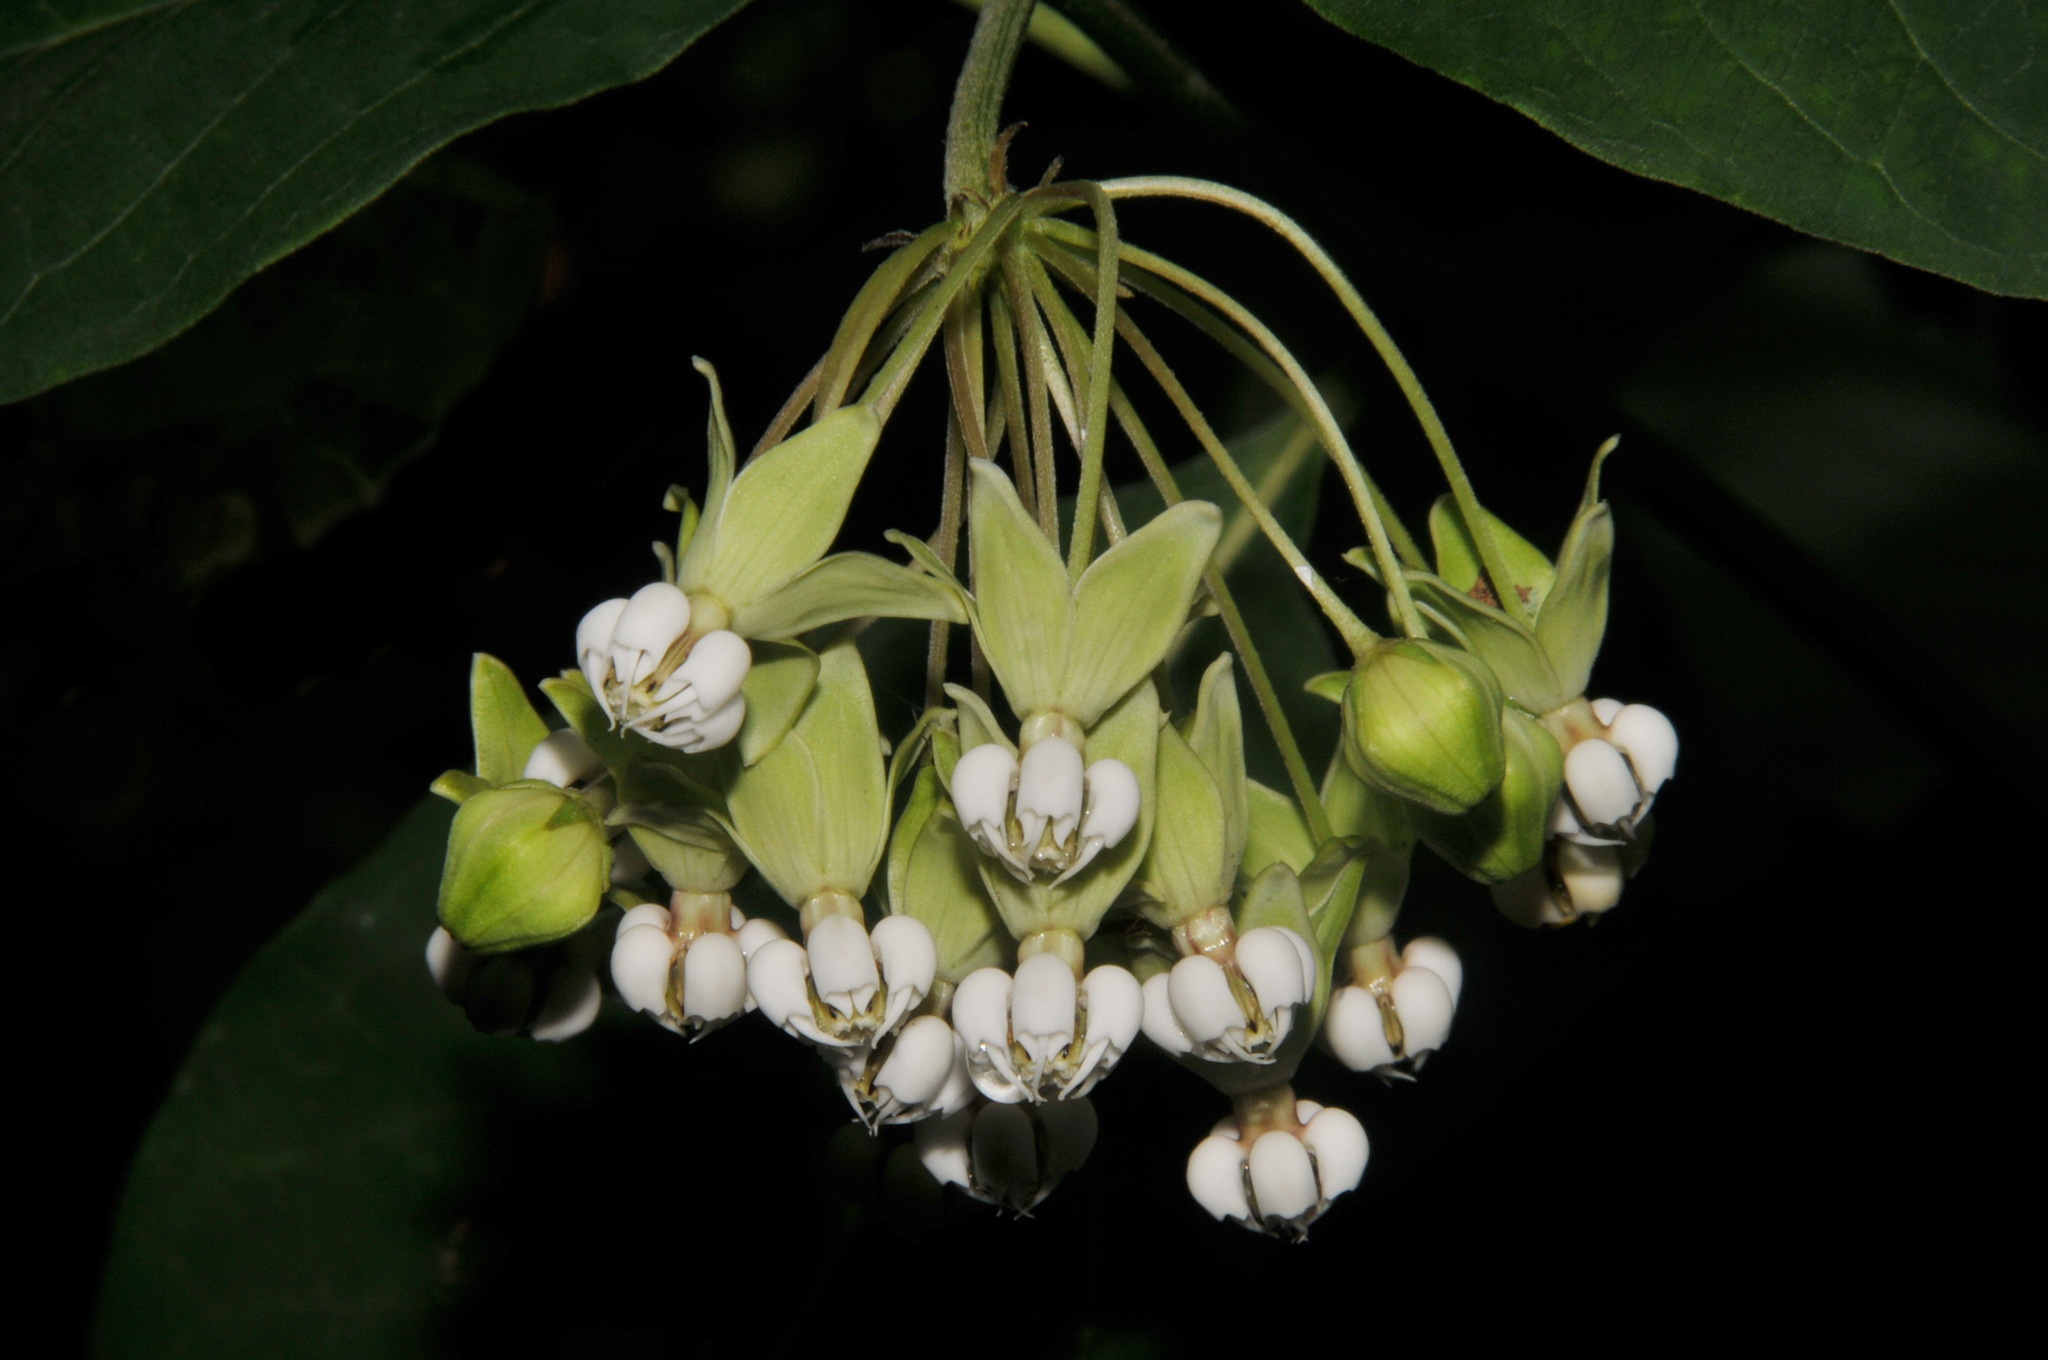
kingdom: Plantae
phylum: Tracheophyta
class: Magnoliopsida
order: Gentianales
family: Apocynaceae
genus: Asclepias
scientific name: Asclepias exaltata
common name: Poke milkweed
